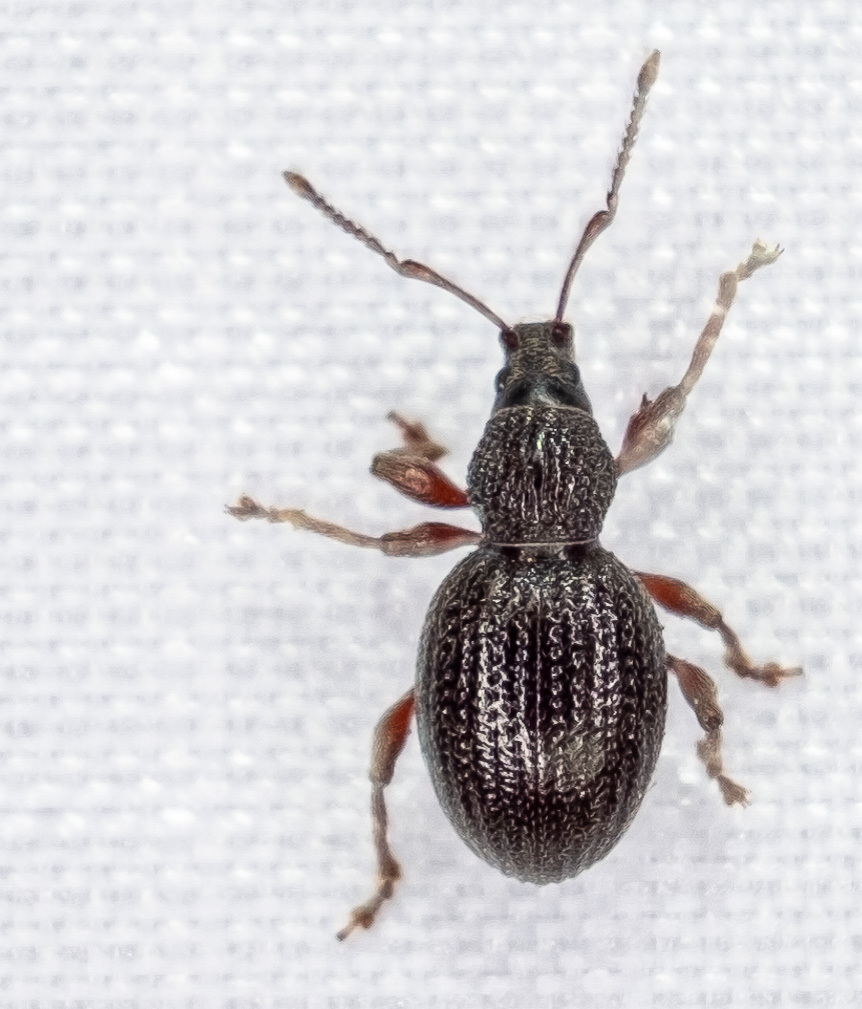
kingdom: Animalia
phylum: Arthropoda
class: Insecta
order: Coleoptera
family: Curculionidae
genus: Otiorhynchus
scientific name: Otiorhynchus ovatus
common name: Strawberry root weevil
